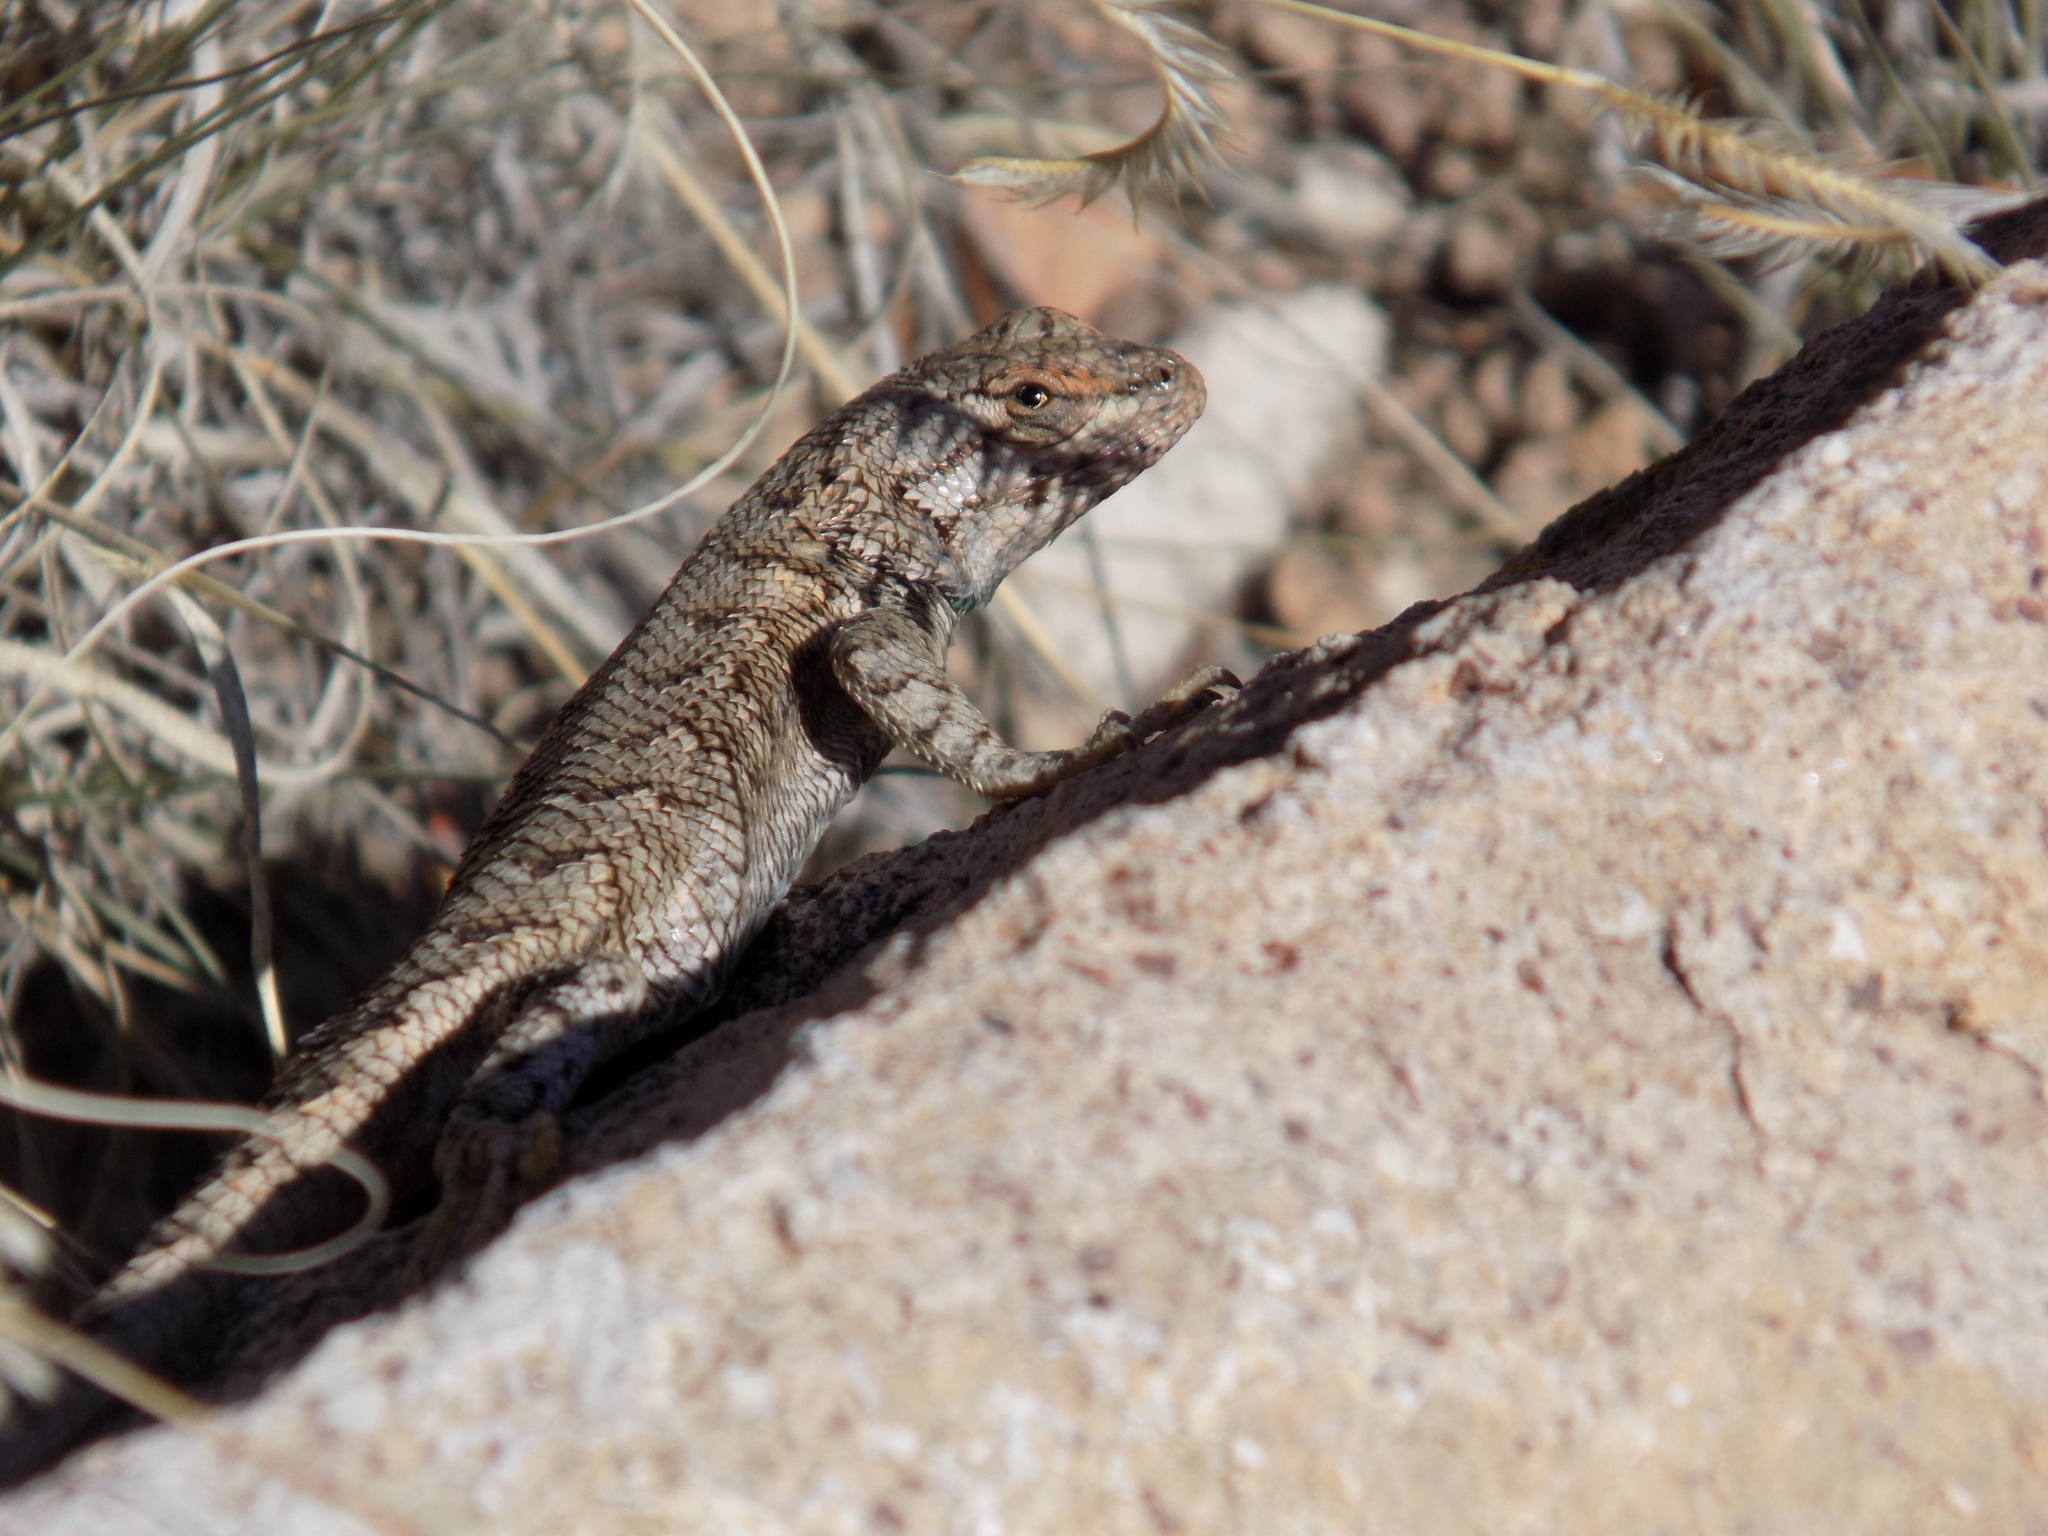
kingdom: Animalia
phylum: Chordata
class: Squamata
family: Phrynosomatidae
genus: Sceloporus
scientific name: Sceloporus tristichus
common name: Plateau fence lizard
